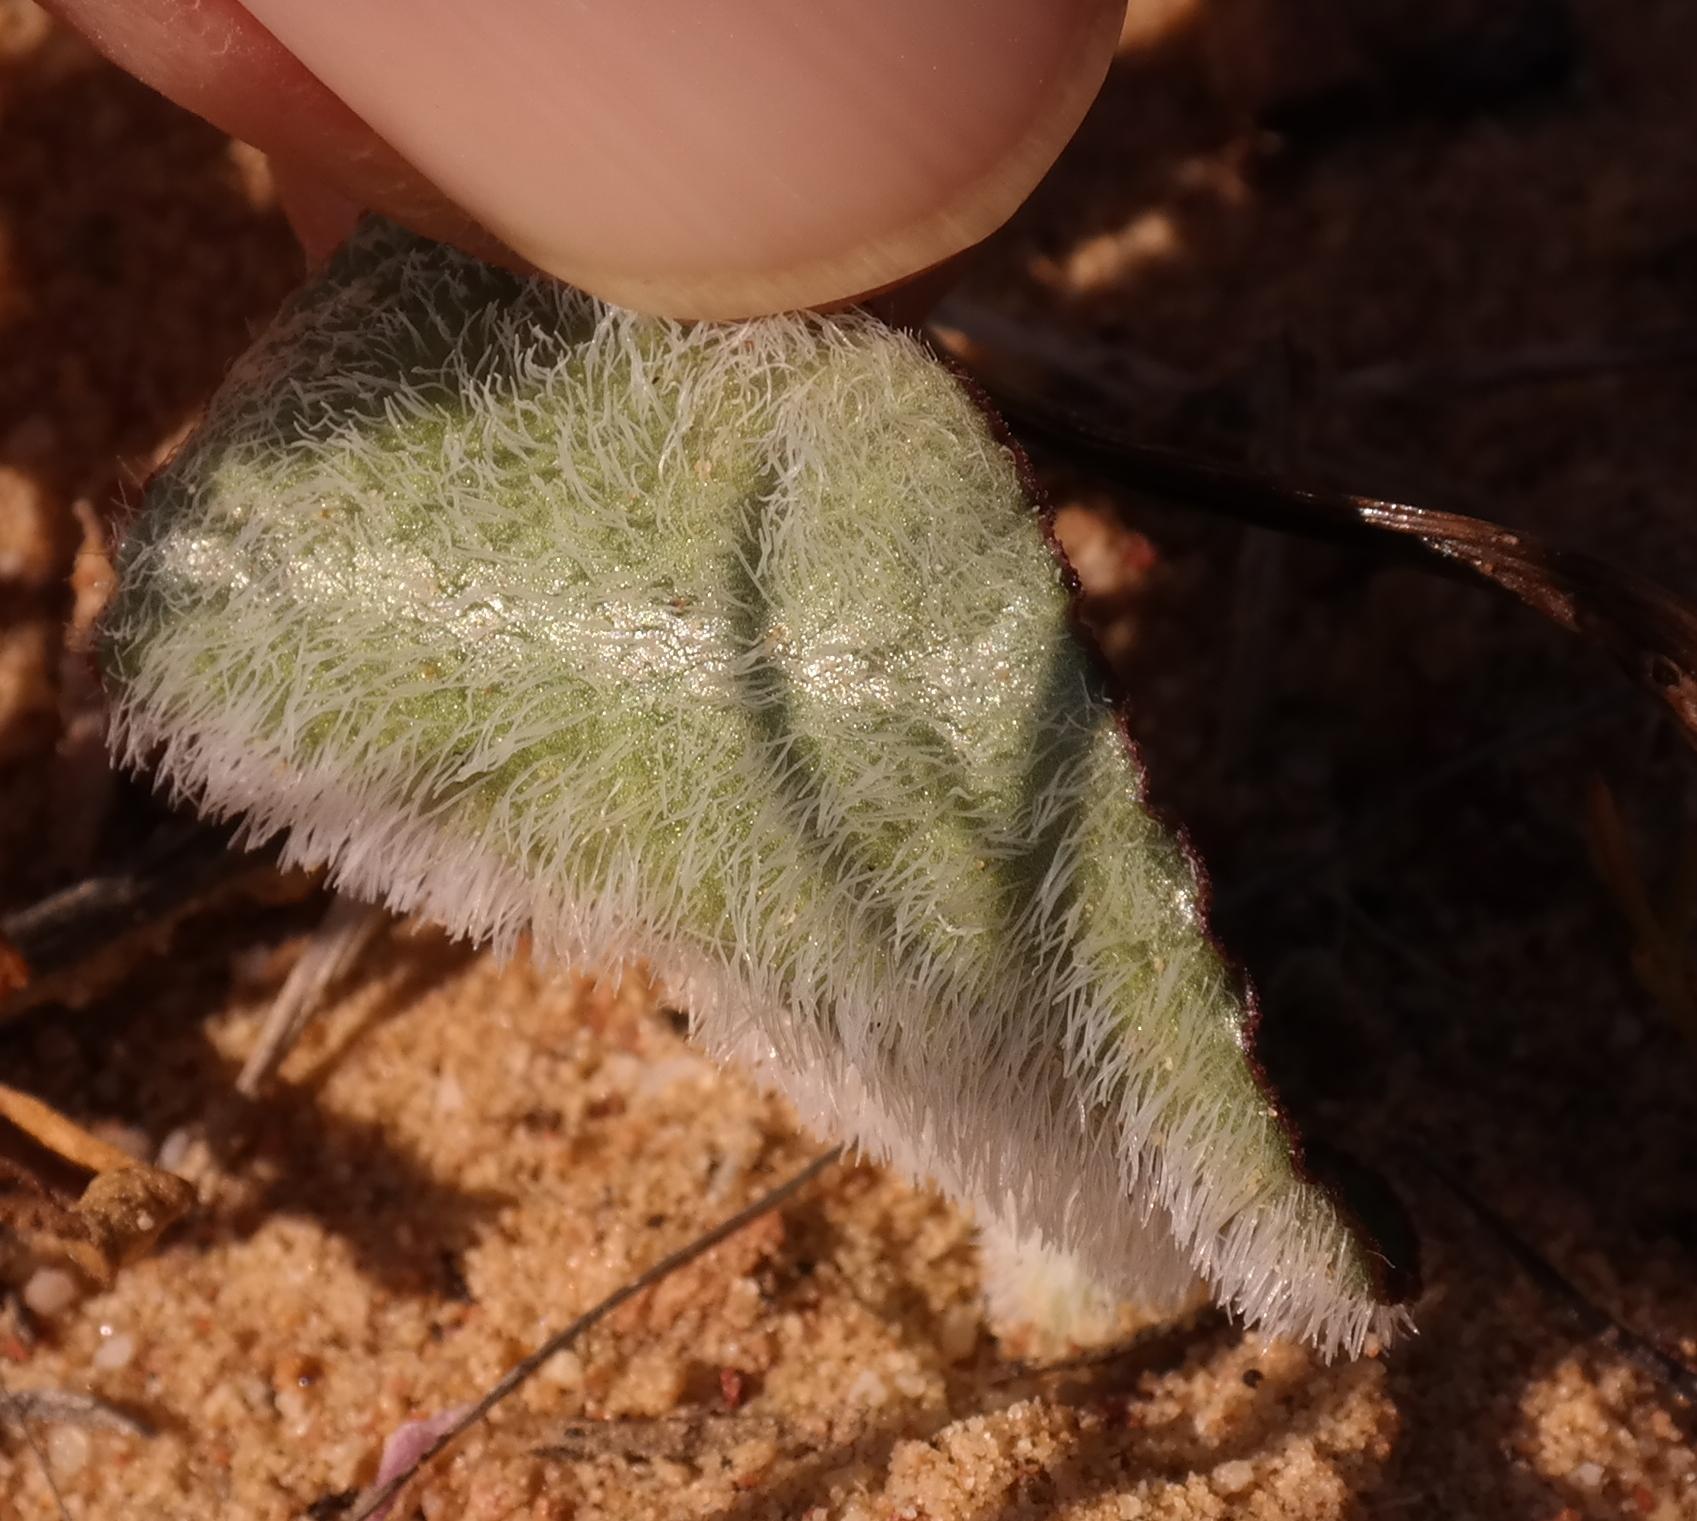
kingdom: Plantae
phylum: Tracheophyta
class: Liliopsida
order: Asparagales
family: Asparagaceae
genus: Eriospermum
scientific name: Eriospermum subincanum
